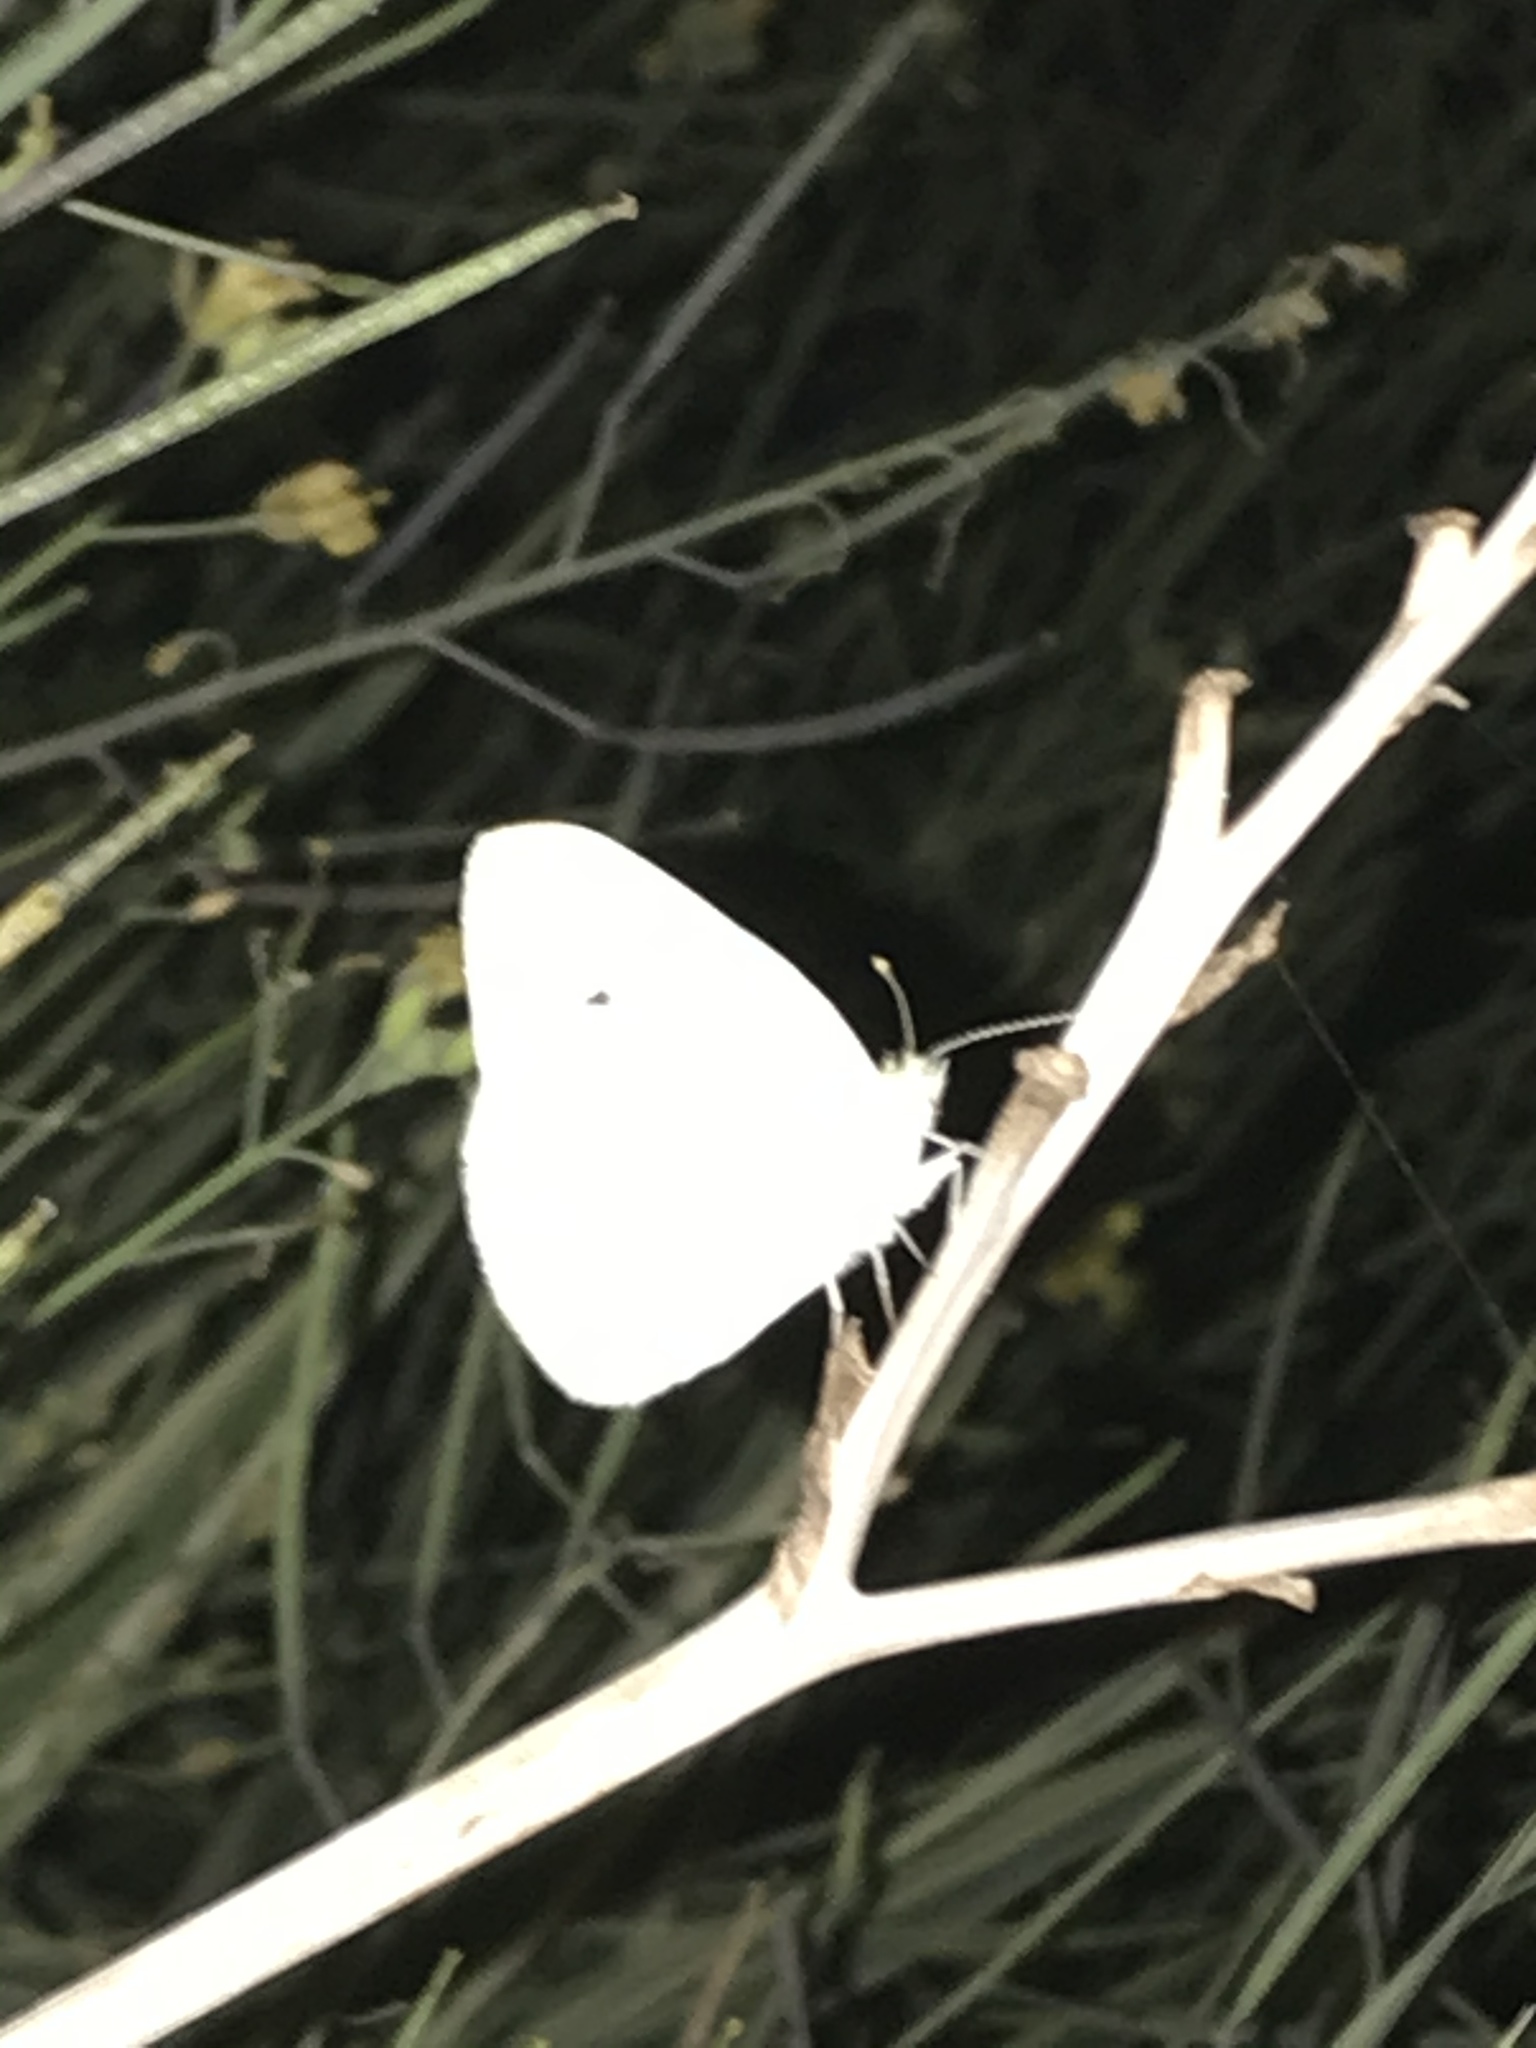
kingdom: Animalia
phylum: Arthropoda
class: Insecta
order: Lepidoptera
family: Pieridae
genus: Pieris
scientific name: Pieris rapae
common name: Small white
